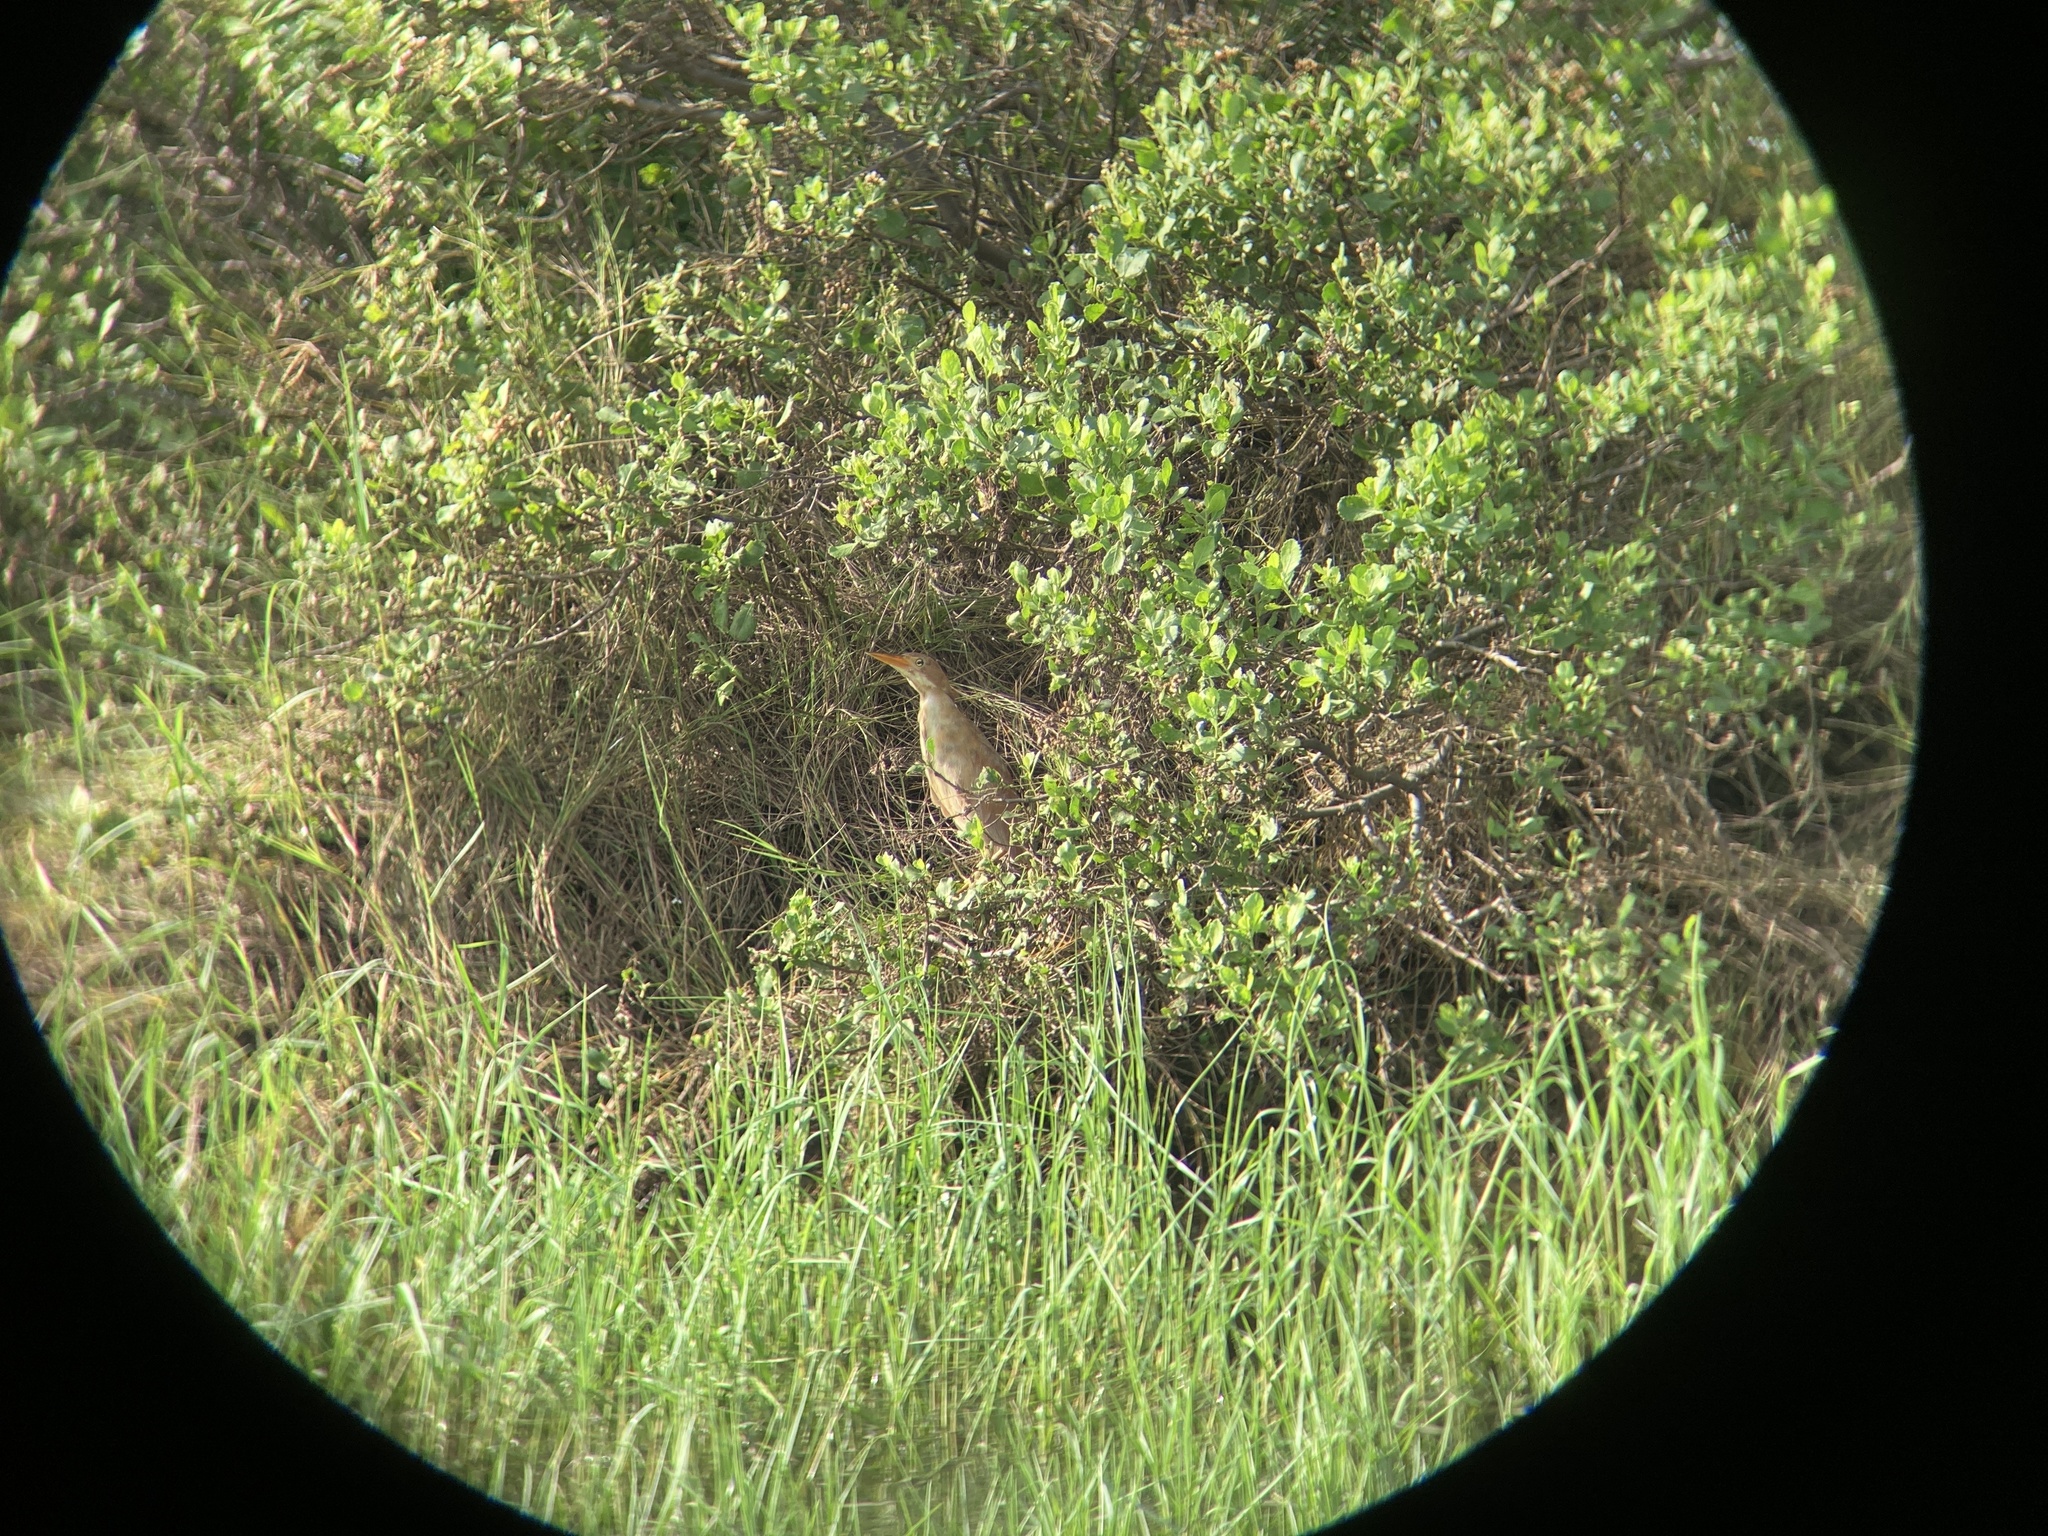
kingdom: Animalia
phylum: Chordata
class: Aves
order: Pelecaniformes
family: Ardeidae
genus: Ixobrychus
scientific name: Ixobrychus cinnamomeus
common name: Cinnamon bittern
